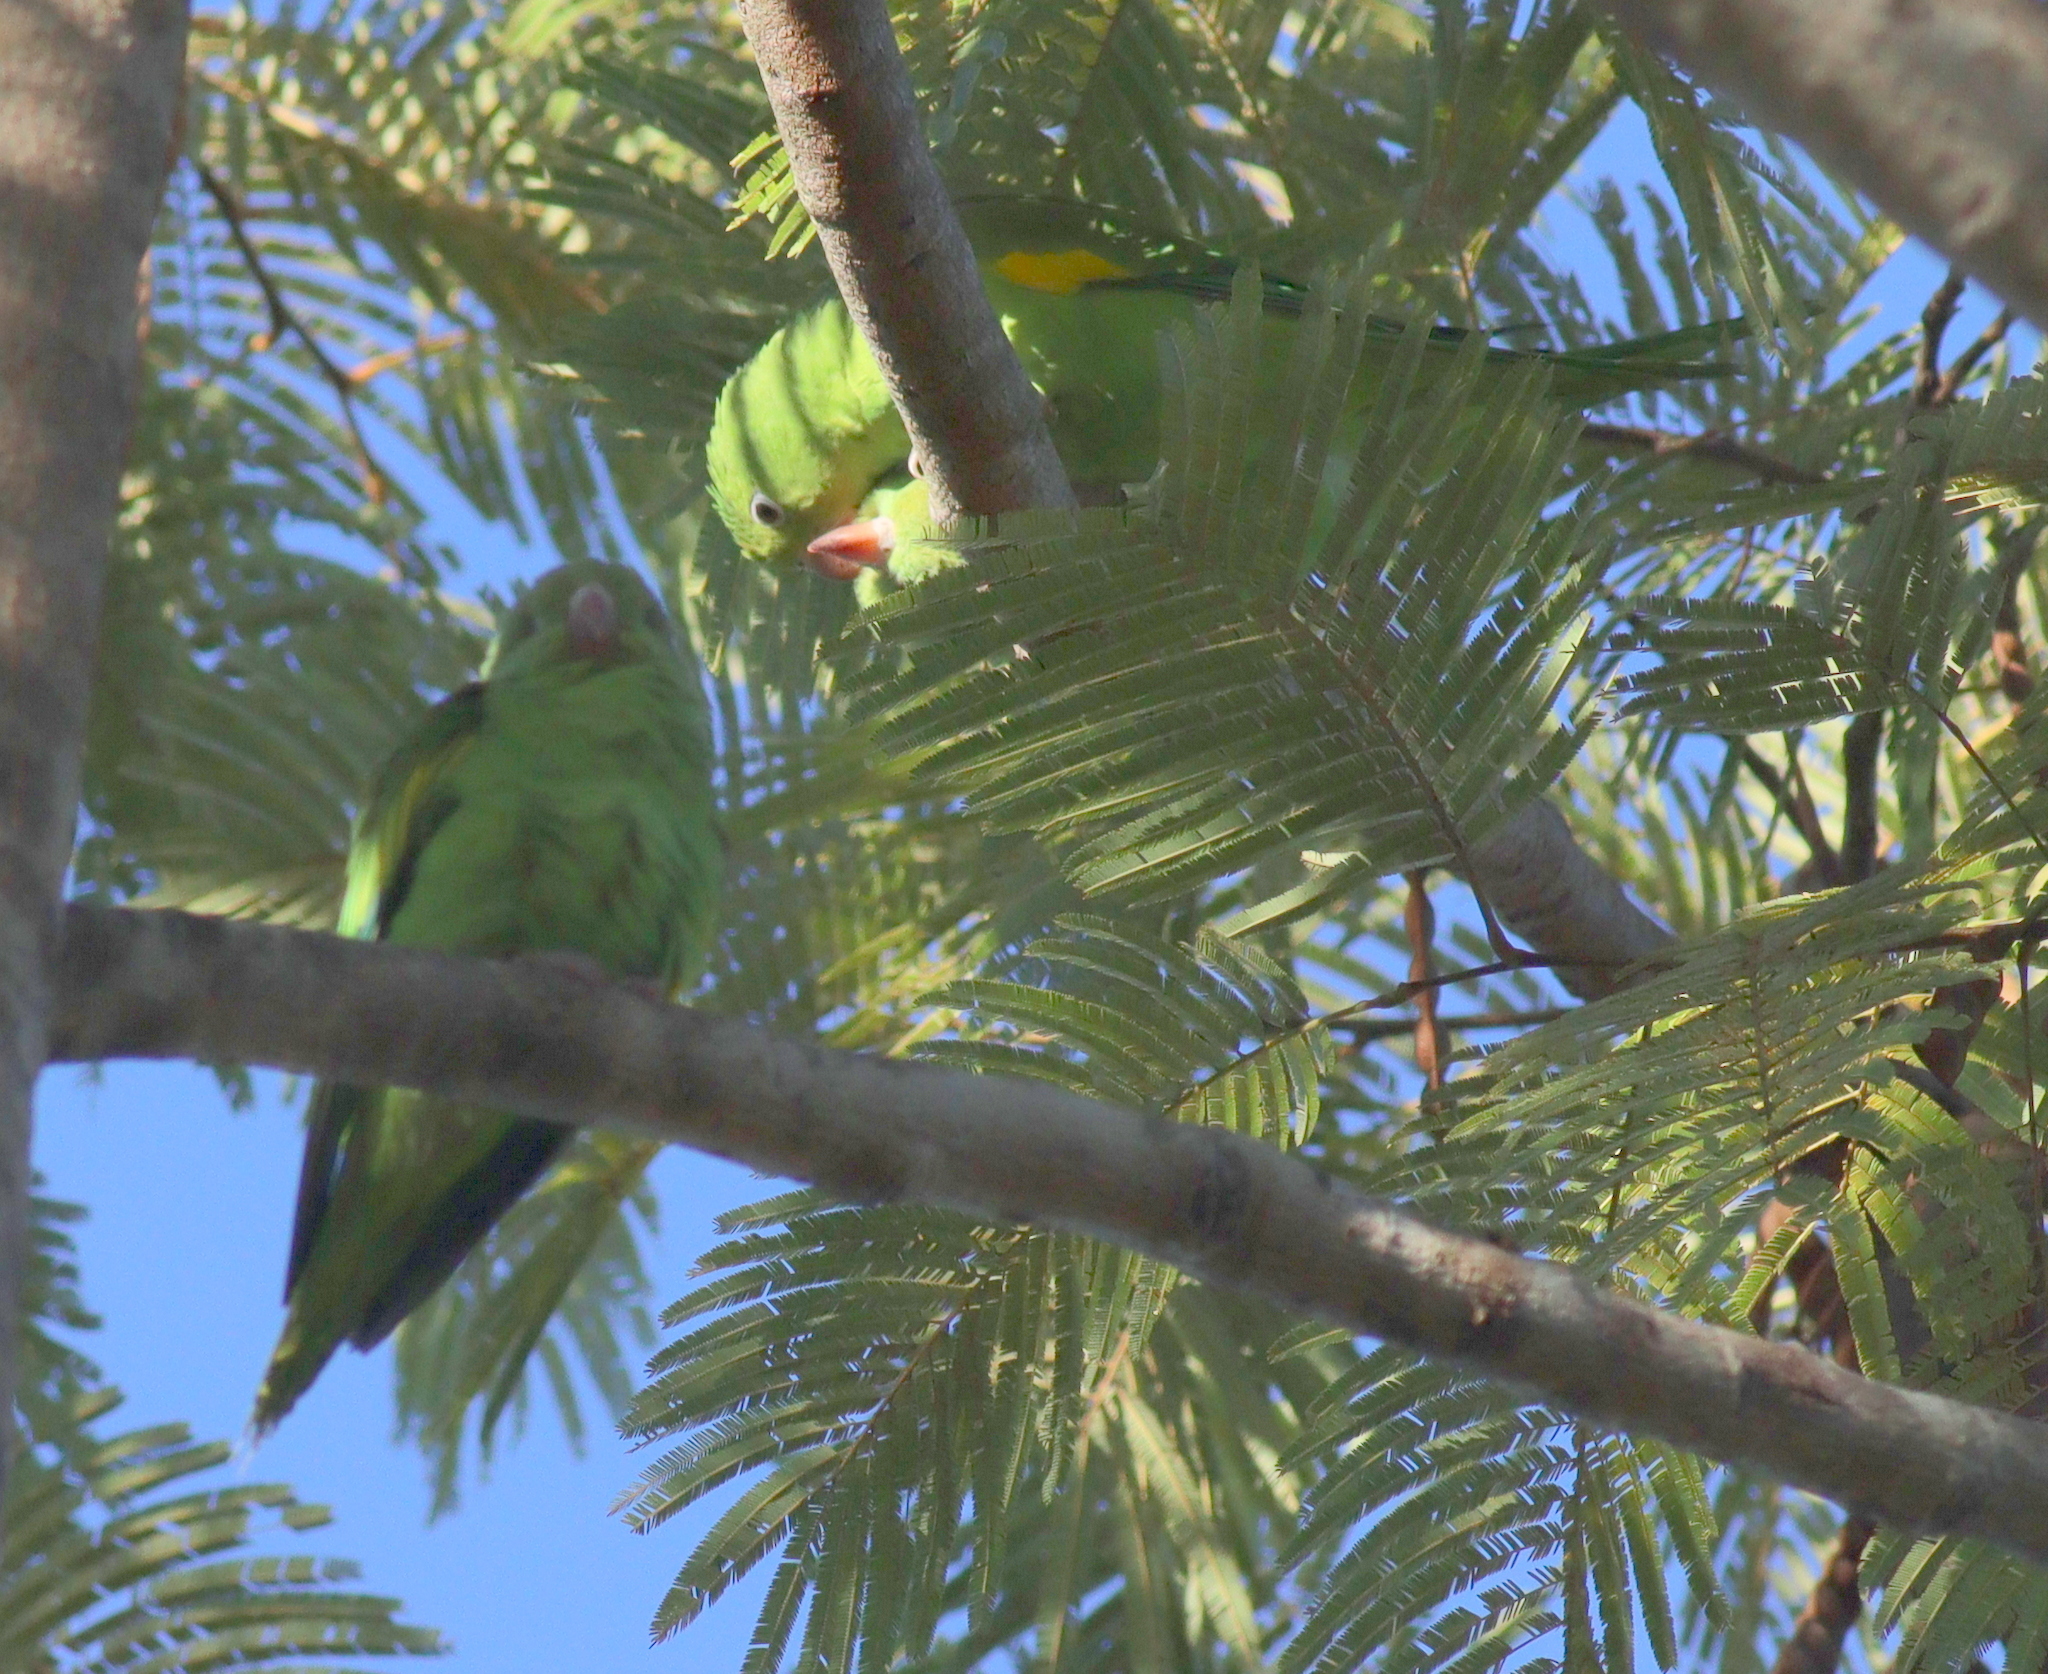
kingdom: Animalia
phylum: Chordata
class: Aves
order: Psittaciformes
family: Psittacidae
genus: Brotogeris
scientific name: Brotogeris chiriri
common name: Yellow-chevroned parakeet
